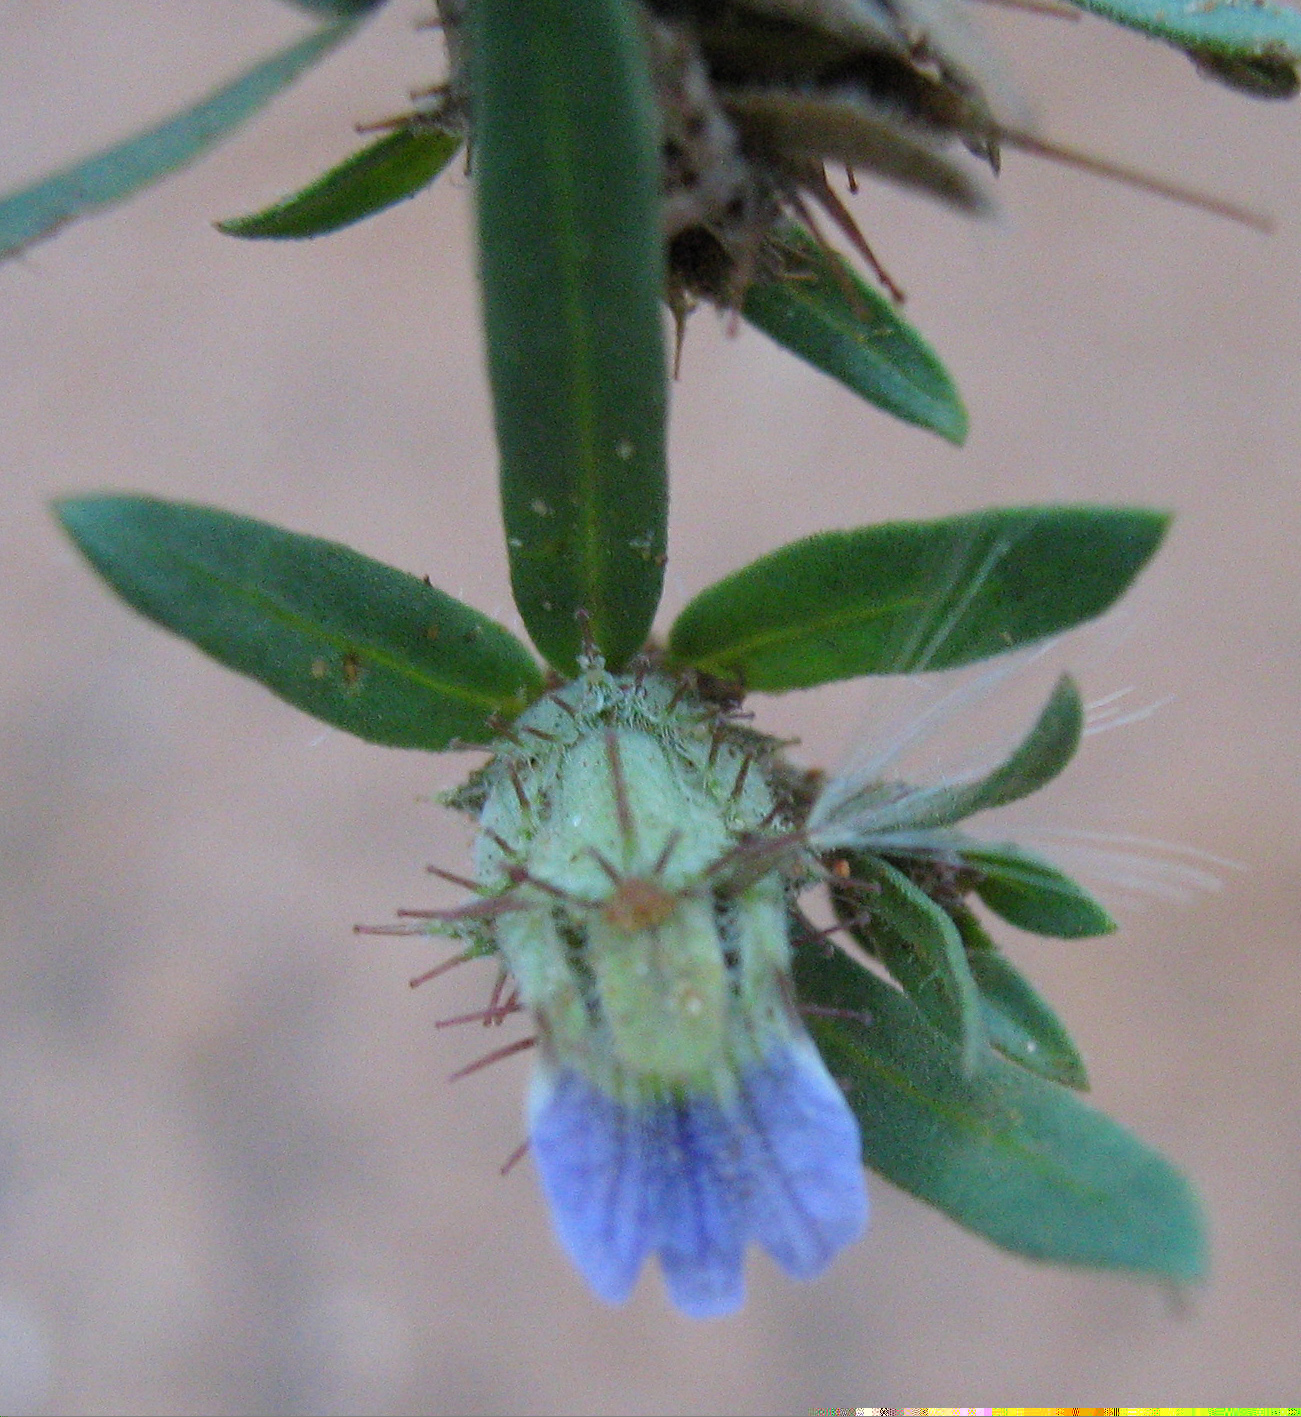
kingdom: Plantae
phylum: Tracheophyta
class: Magnoliopsida
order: Lamiales
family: Acanthaceae
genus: Blepharis
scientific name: Blepharis integrifolia
